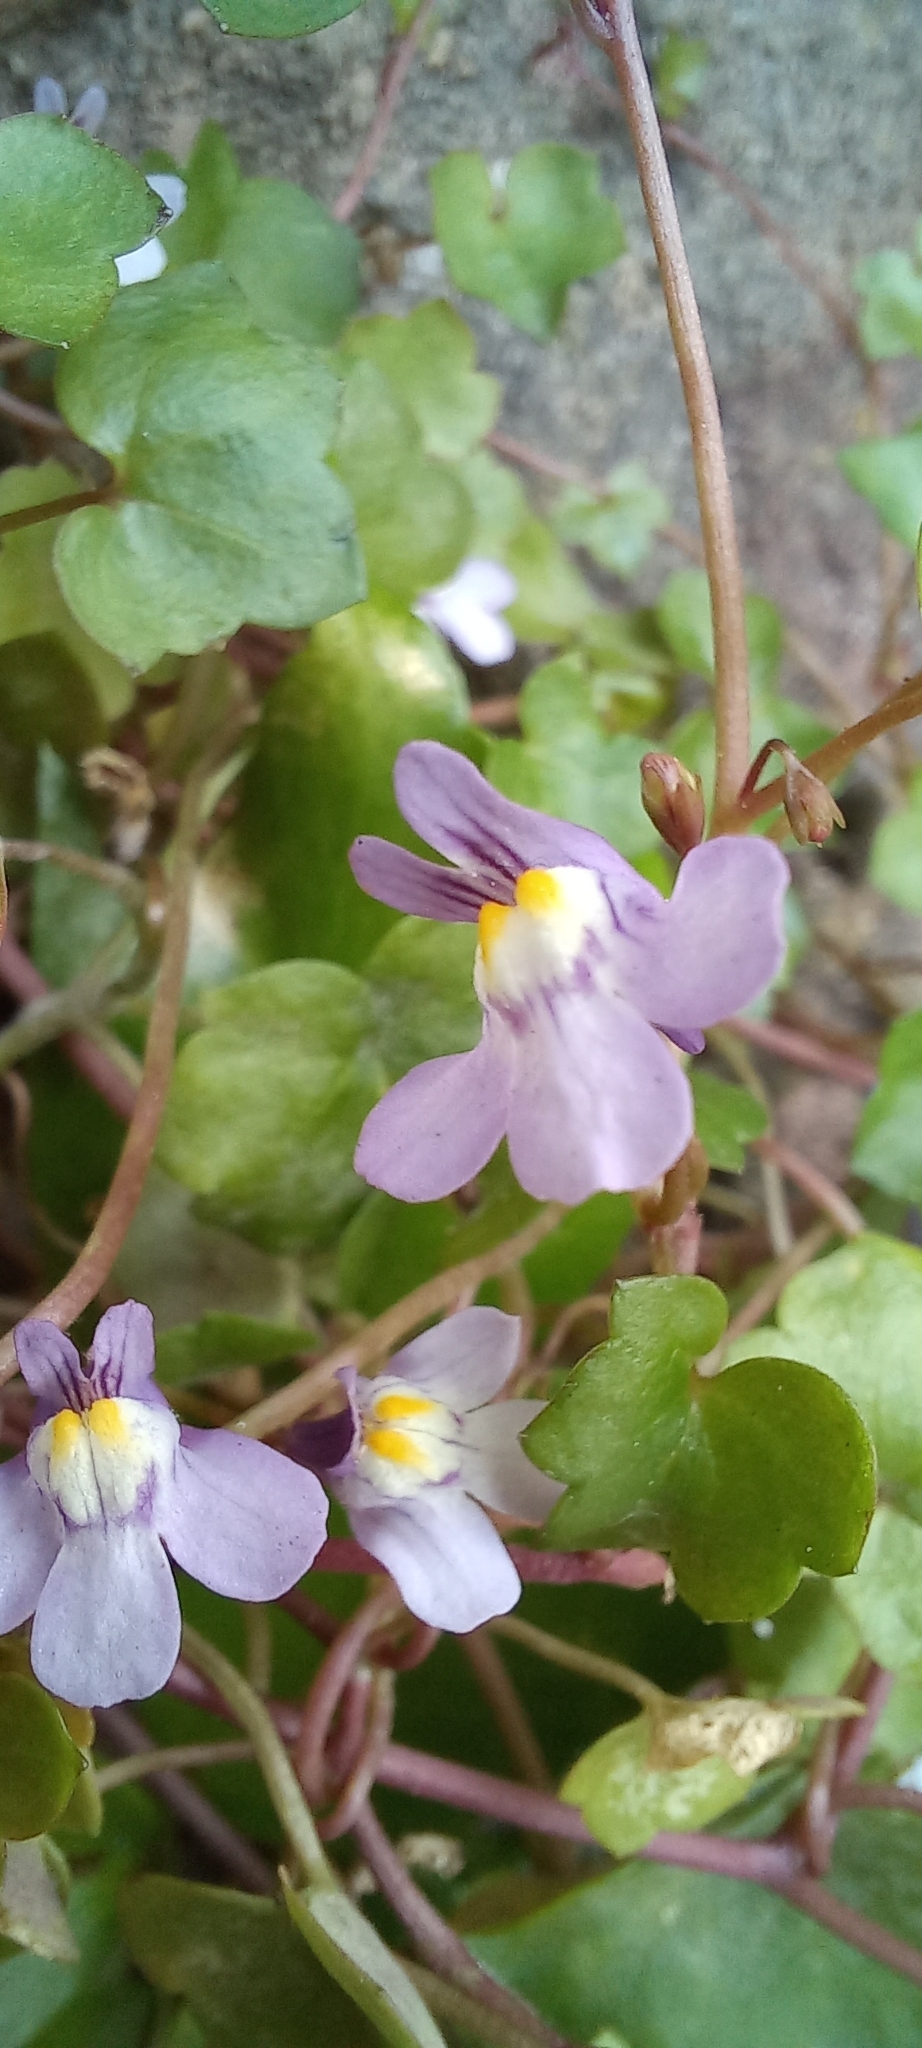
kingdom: Plantae
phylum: Tracheophyta
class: Magnoliopsida
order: Lamiales
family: Plantaginaceae
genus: Cymbalaria
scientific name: Cymbalaria muralis
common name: Ivy-leaved toadflax
